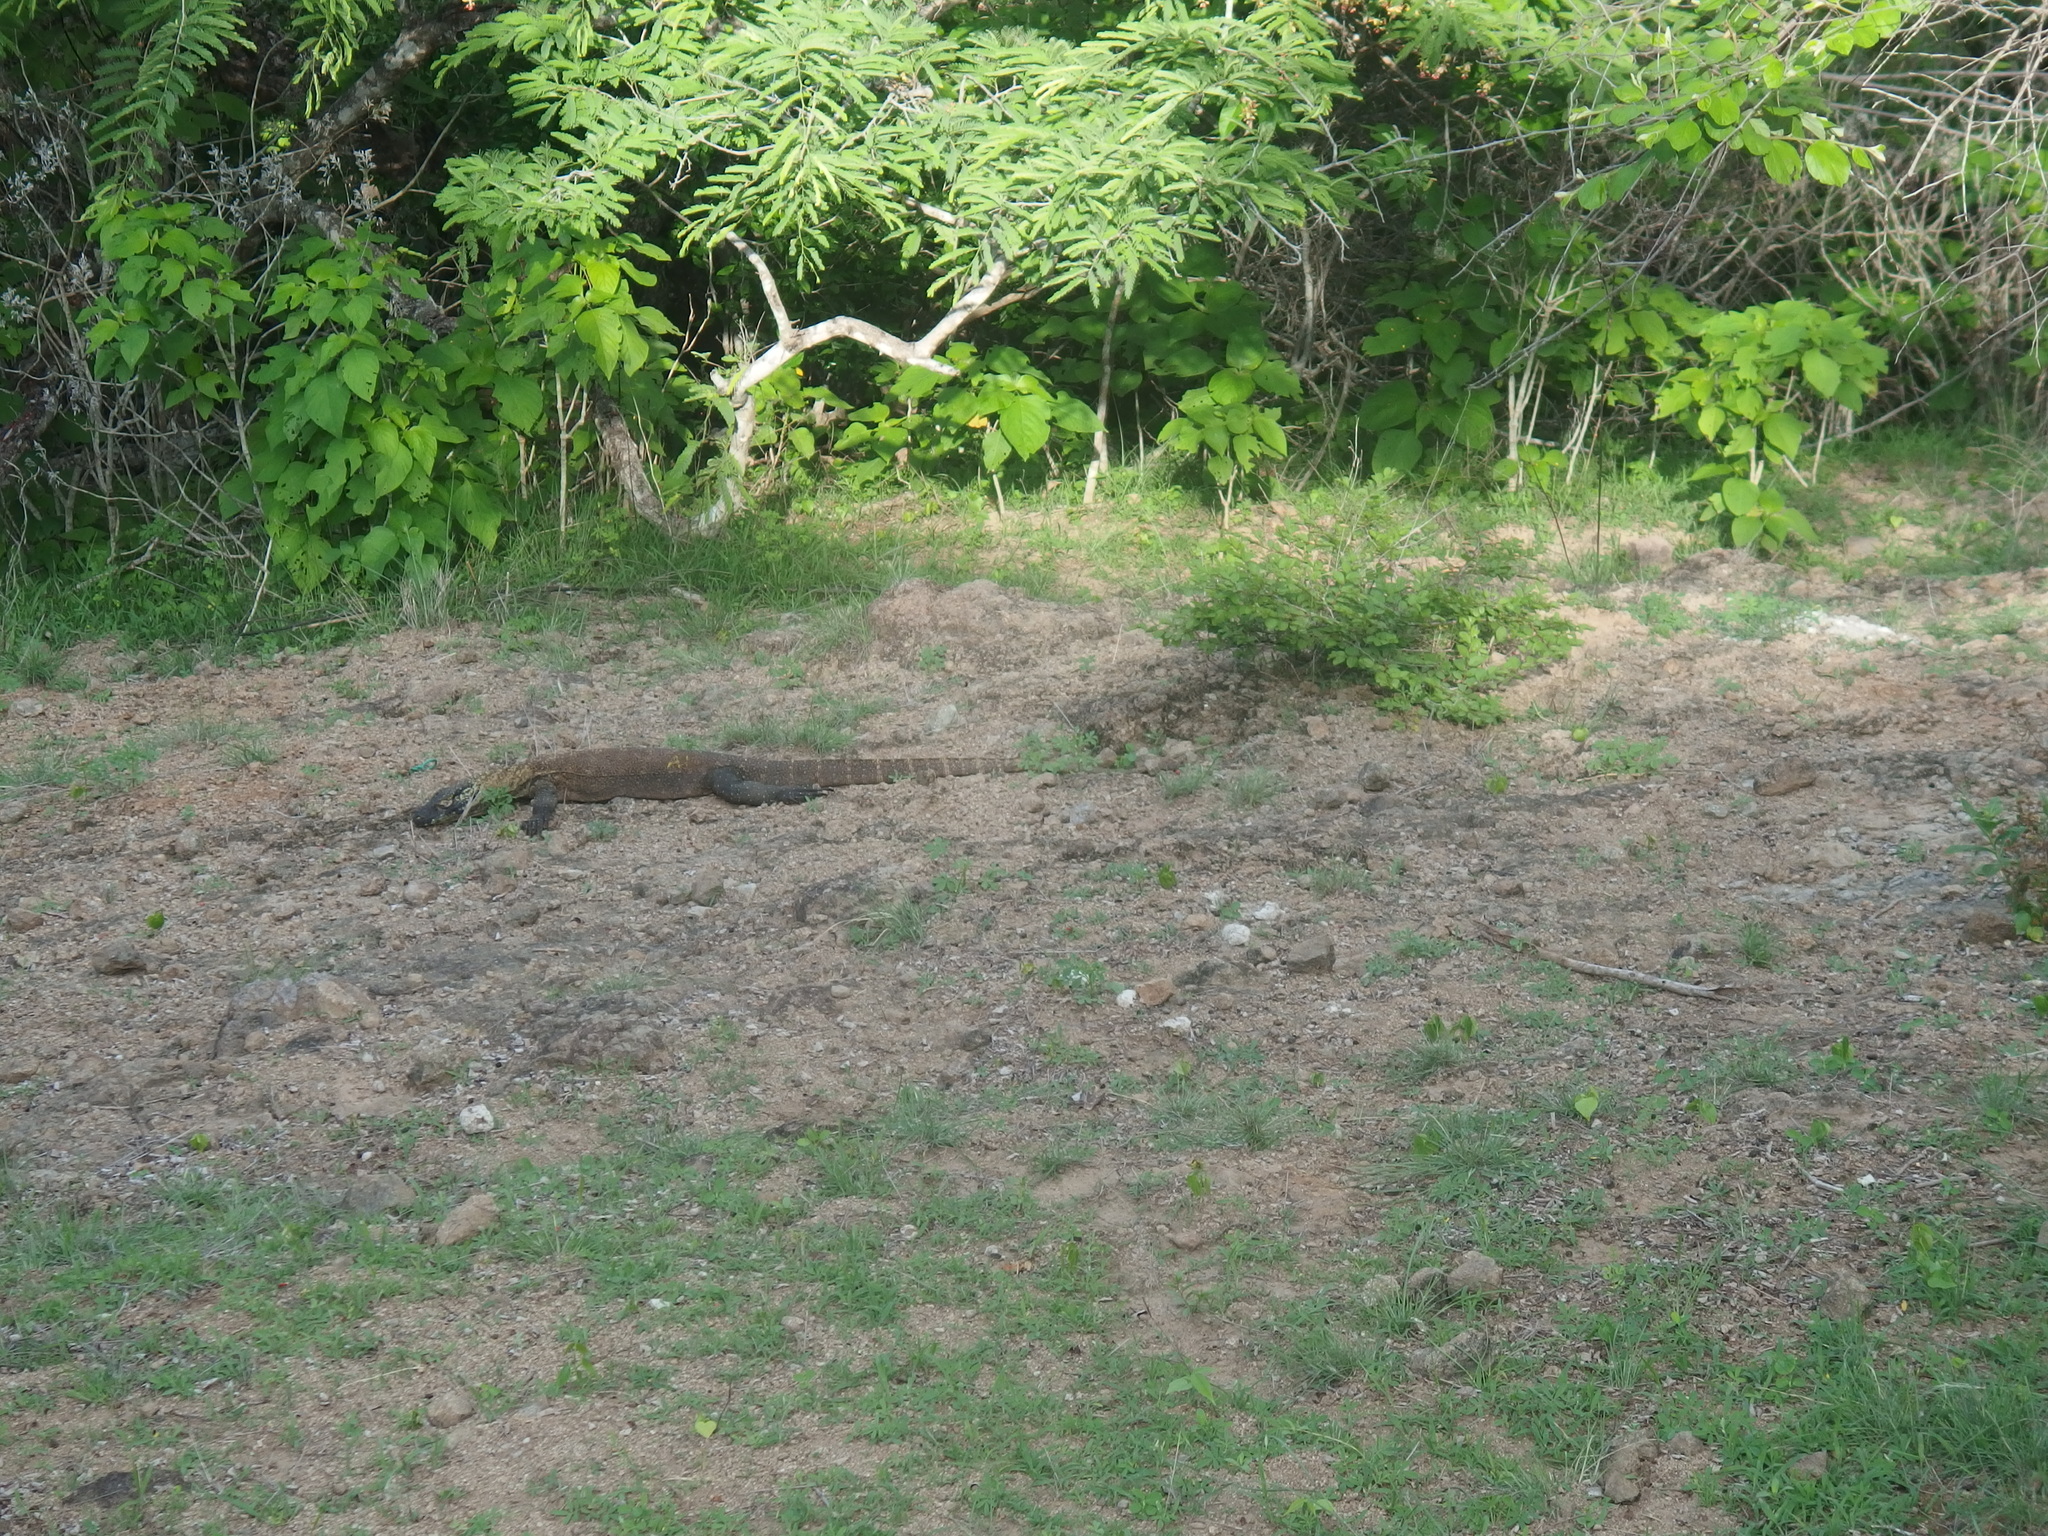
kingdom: Animalia
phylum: Chordata
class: Squamata
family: Varanidae
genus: Varanus
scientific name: Varanus komodoensis
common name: Komodo dragon
